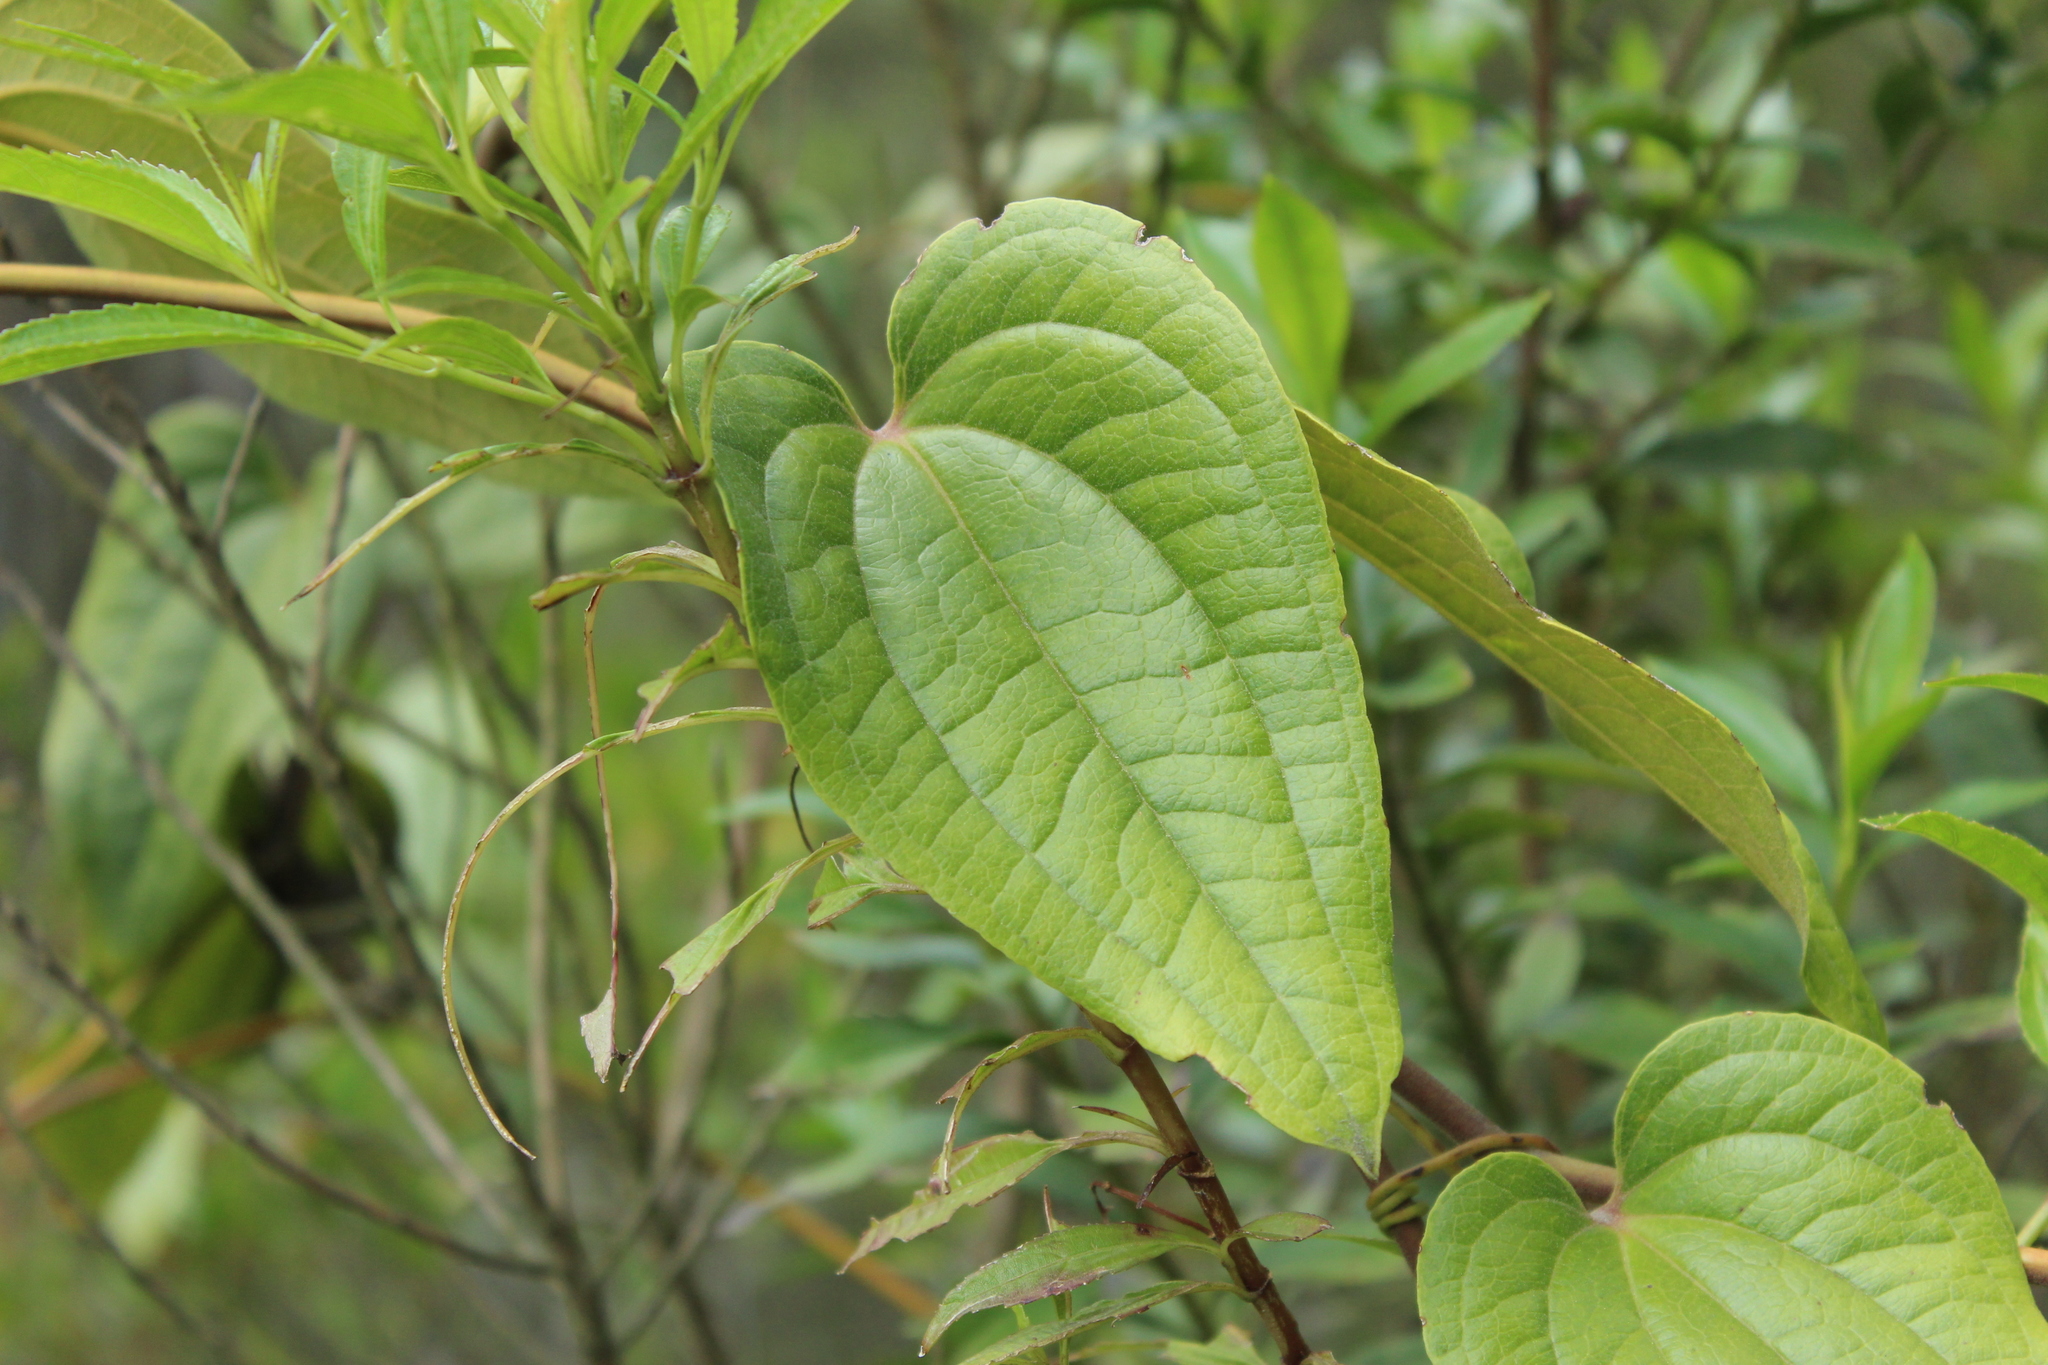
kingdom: Plantae
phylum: Tracheophyta
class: Liliopsida
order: Liliales
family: Smilacaceae
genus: Smilax
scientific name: Smilax tomentosa
